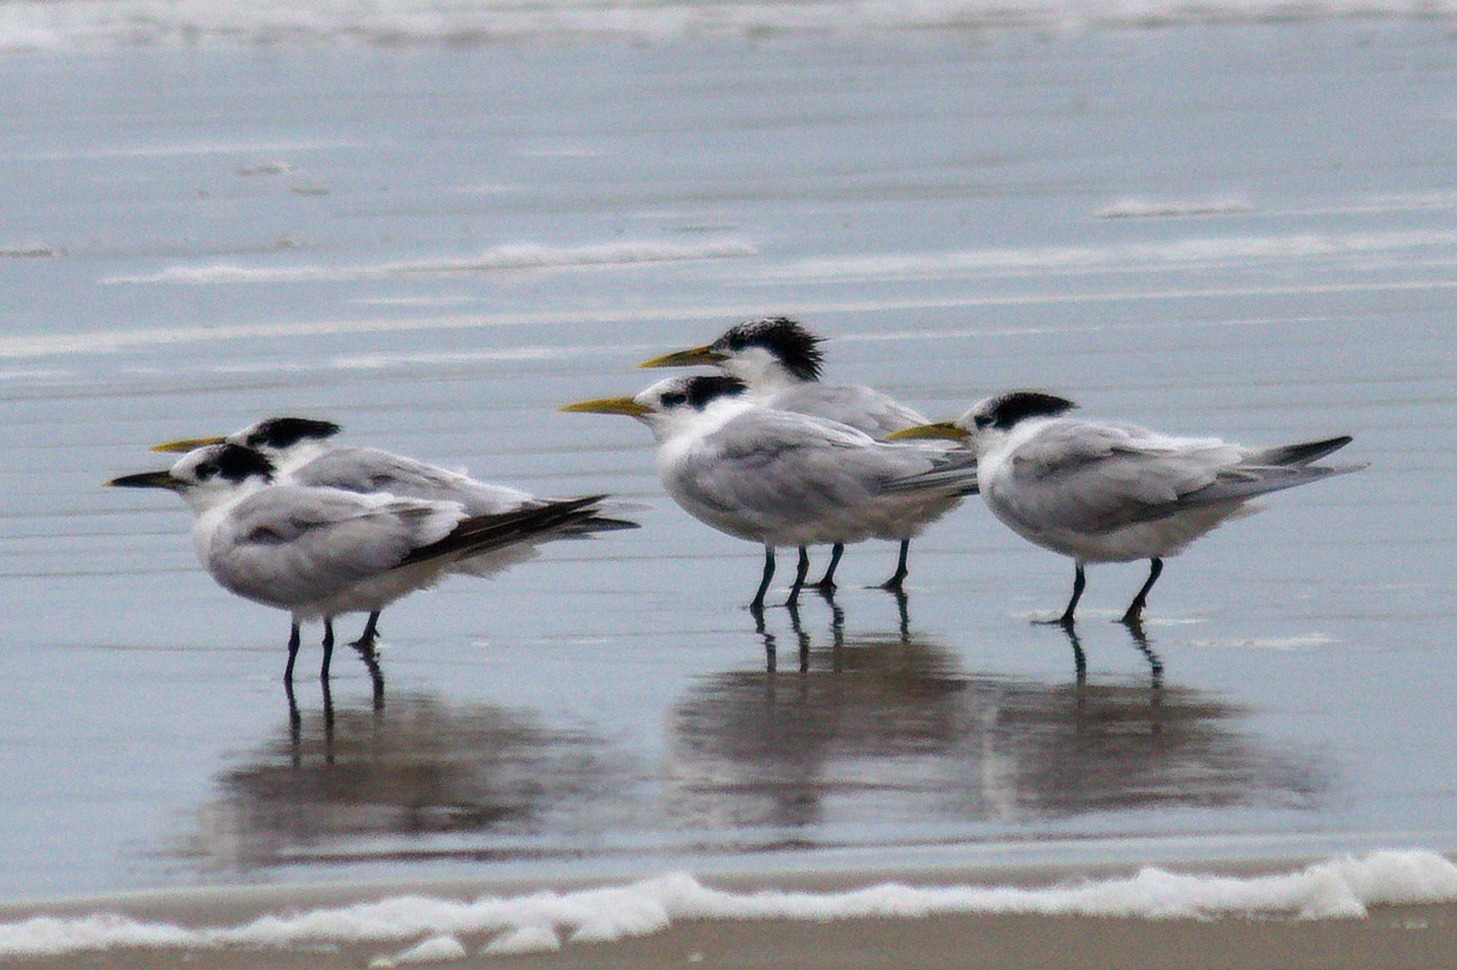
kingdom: Animalia
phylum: Chordata
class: Aves
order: Charadriiformes
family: Laridae
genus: Thalasseus
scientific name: Thalasseus sandvicensis
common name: Sandwich tern
